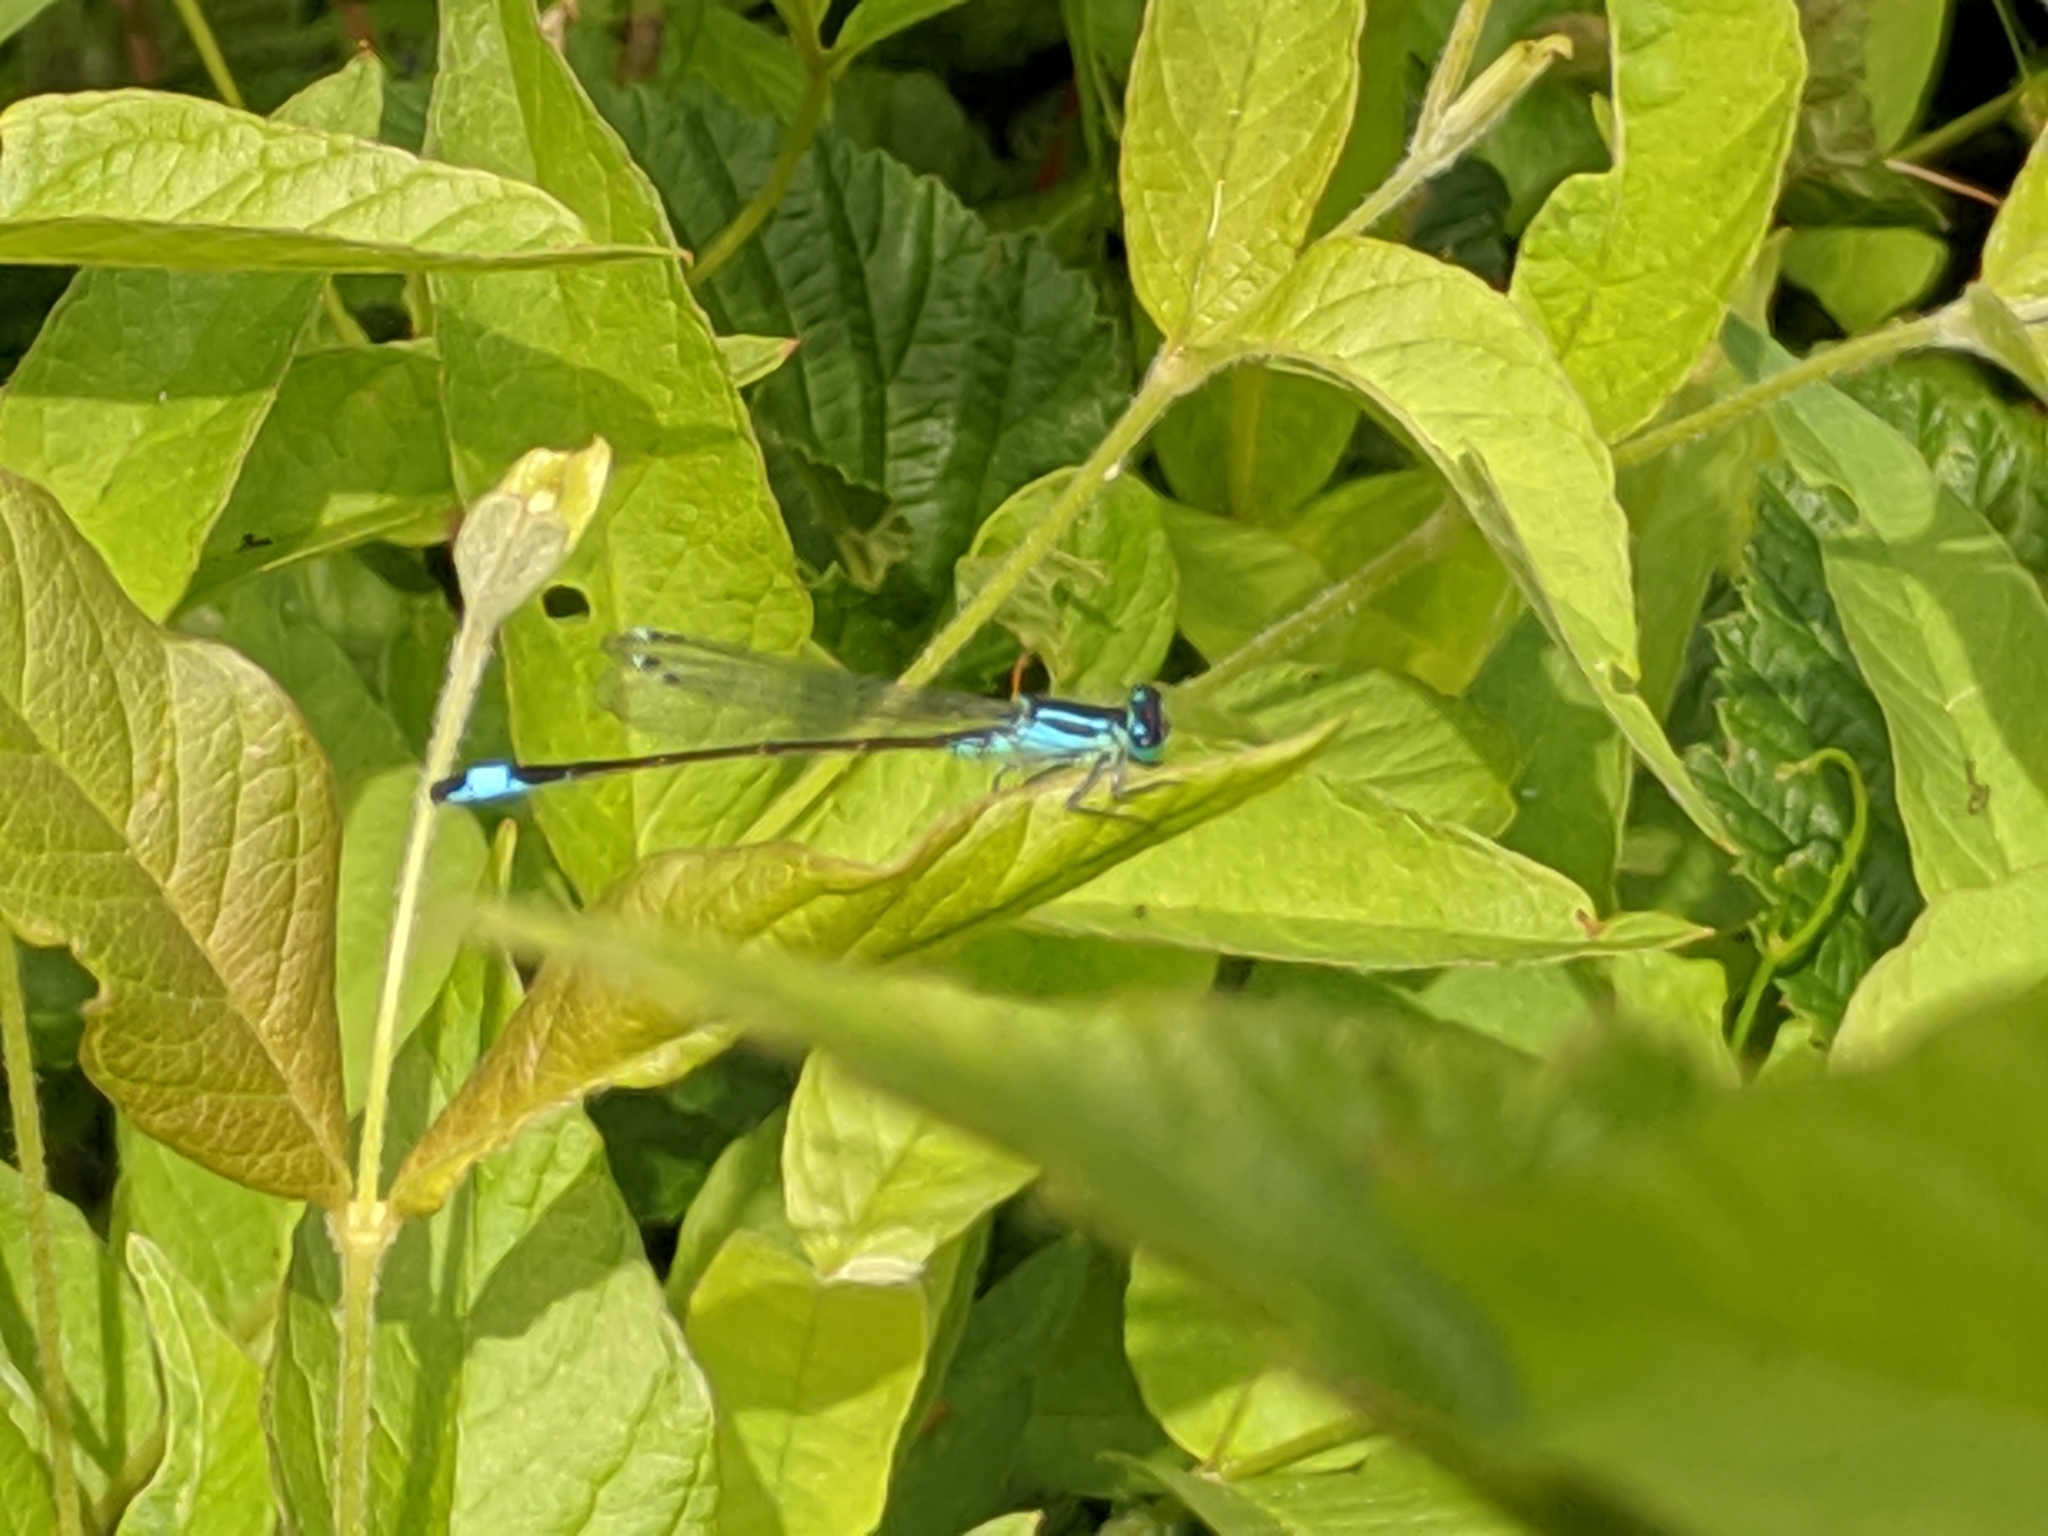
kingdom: Animalia
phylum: Arthropoda
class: Insecta
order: Odonata
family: Coenagrionidae
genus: Ischnura
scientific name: Ischnura elegans
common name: Blue-tailed damselfly
